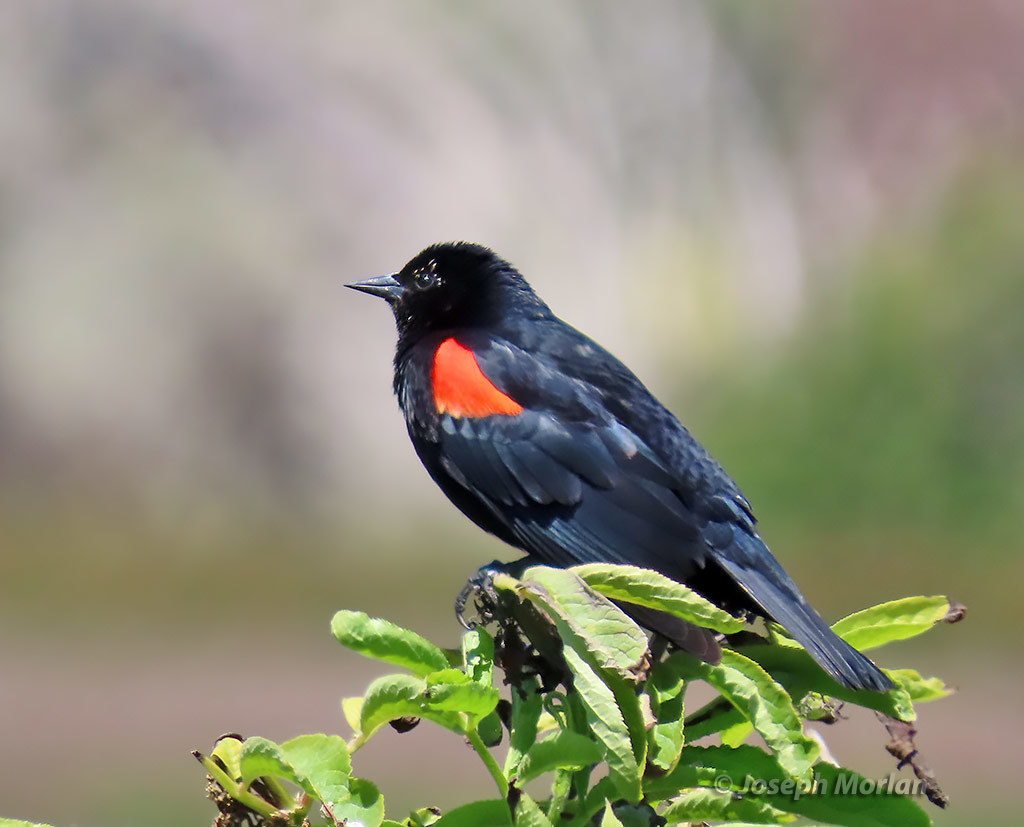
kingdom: Animalia
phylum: Chordata
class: Aves
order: Passeriformes
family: Icteridae
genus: Agelaius
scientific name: Agelaius phoeniceus
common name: Red-winged blackbird
